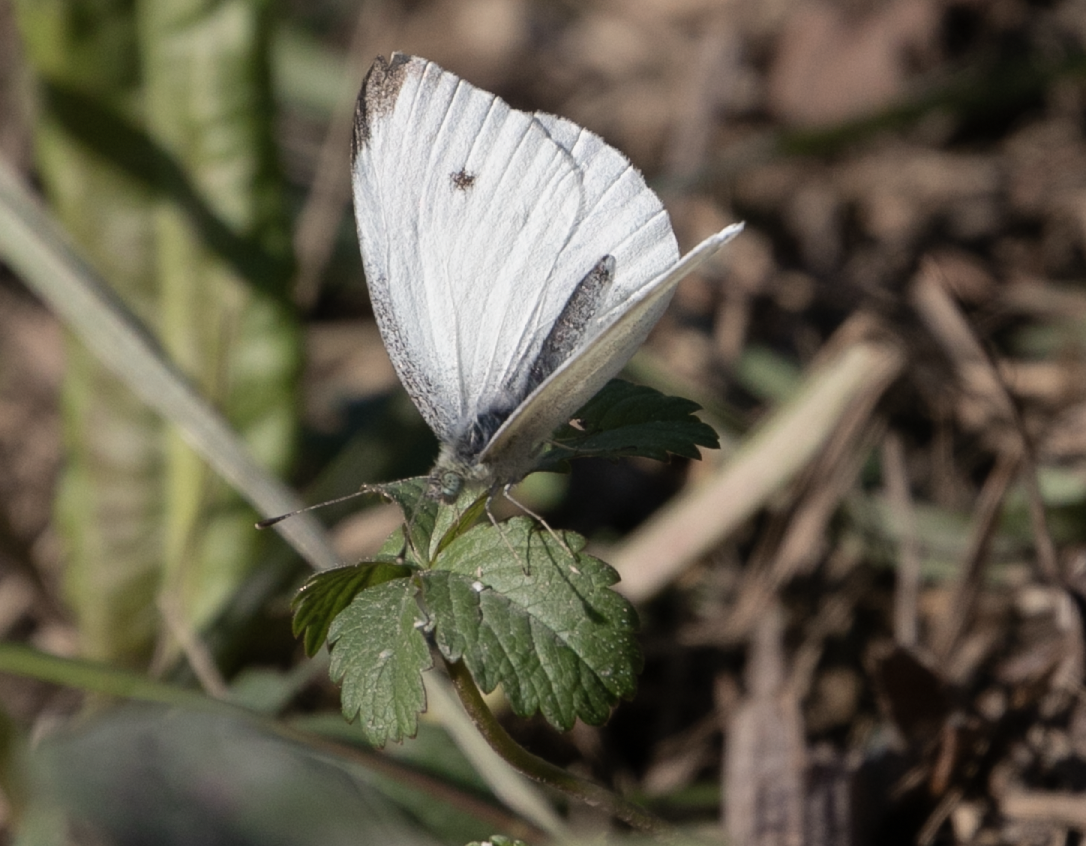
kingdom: Animalia
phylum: Arthropoda
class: Insecta
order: Lepidoptera
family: Pieridae
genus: Pieris
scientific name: Pieris rapae
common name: Small white
